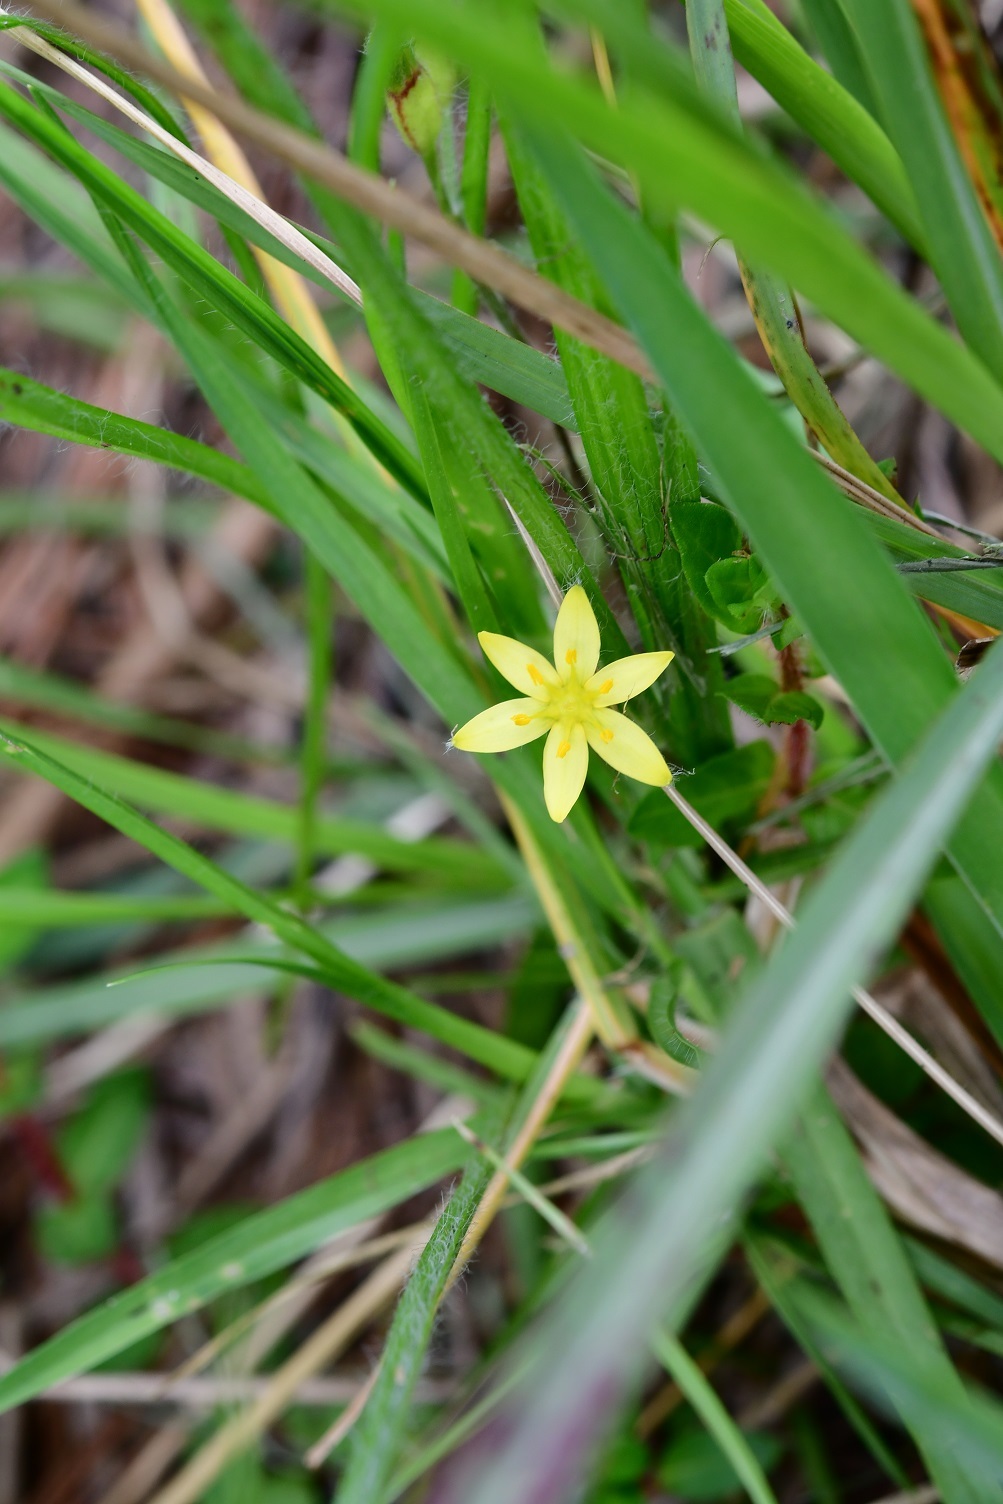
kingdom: Plantae
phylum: Tracheophyta
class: Liliopsida
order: Asparagales
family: Hypoxidaceae
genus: Hypoxis
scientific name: Hypoxis decumbens
